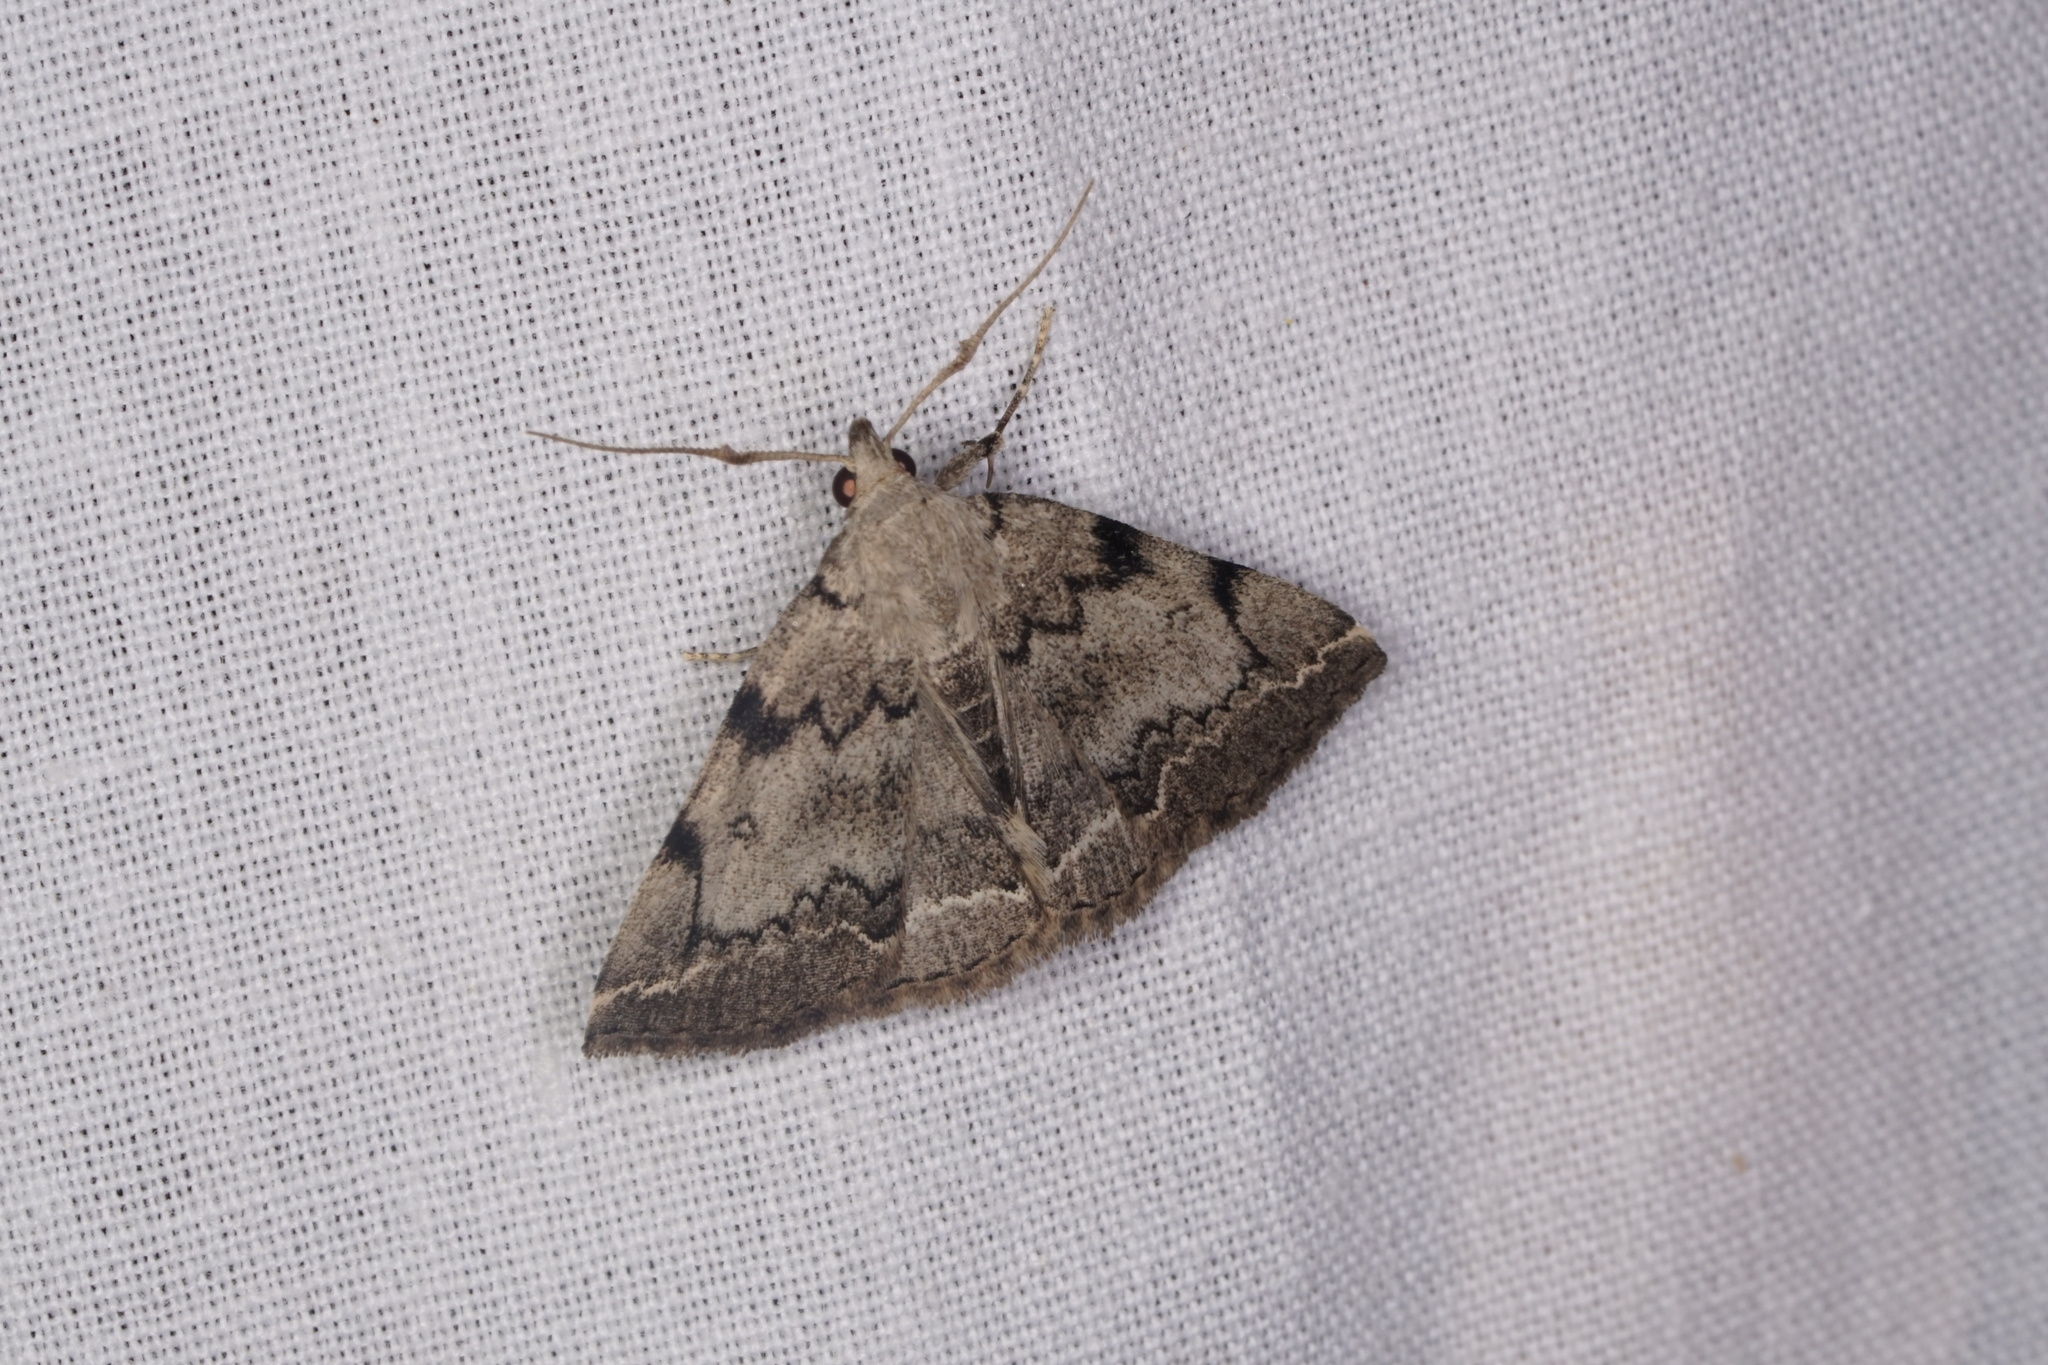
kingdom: Animalia
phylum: Arthropoda
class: Insecta
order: Lepidoptera
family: Erebidae
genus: Zanclognatha
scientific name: Zanclognatha theralis
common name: Flagged fan-foot
